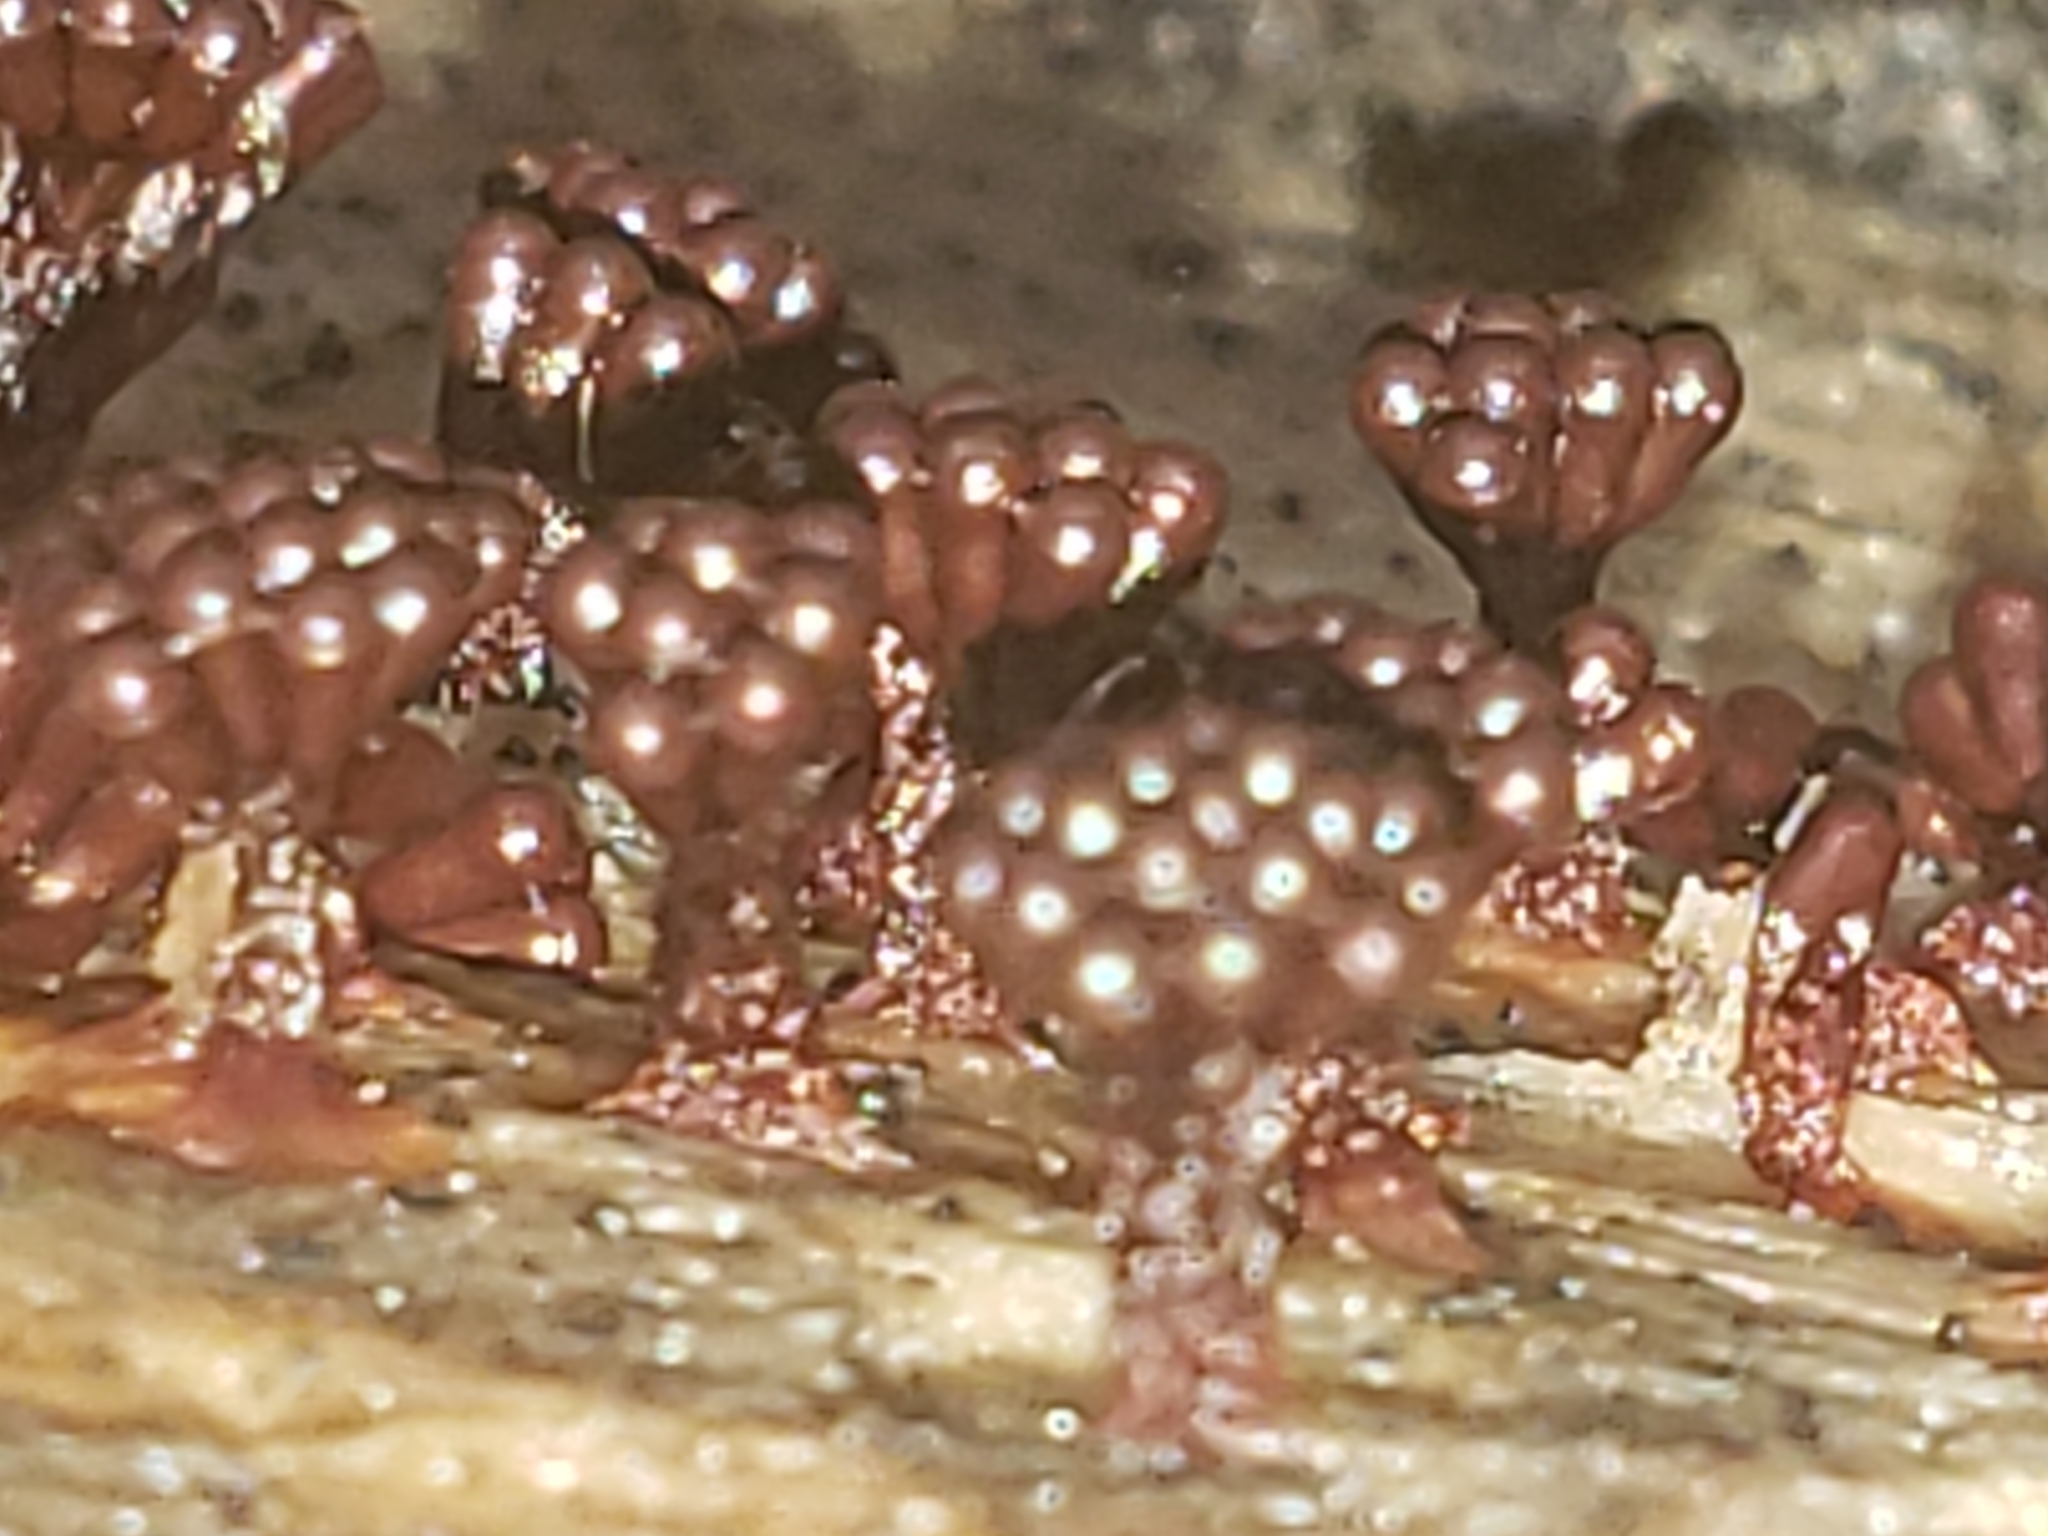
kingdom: Protozoa
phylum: Mycetozoa
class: Myxomycetes
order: Trichiales
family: Trichiaceae
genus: Metatrichia
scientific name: Metatrichia vesparia
